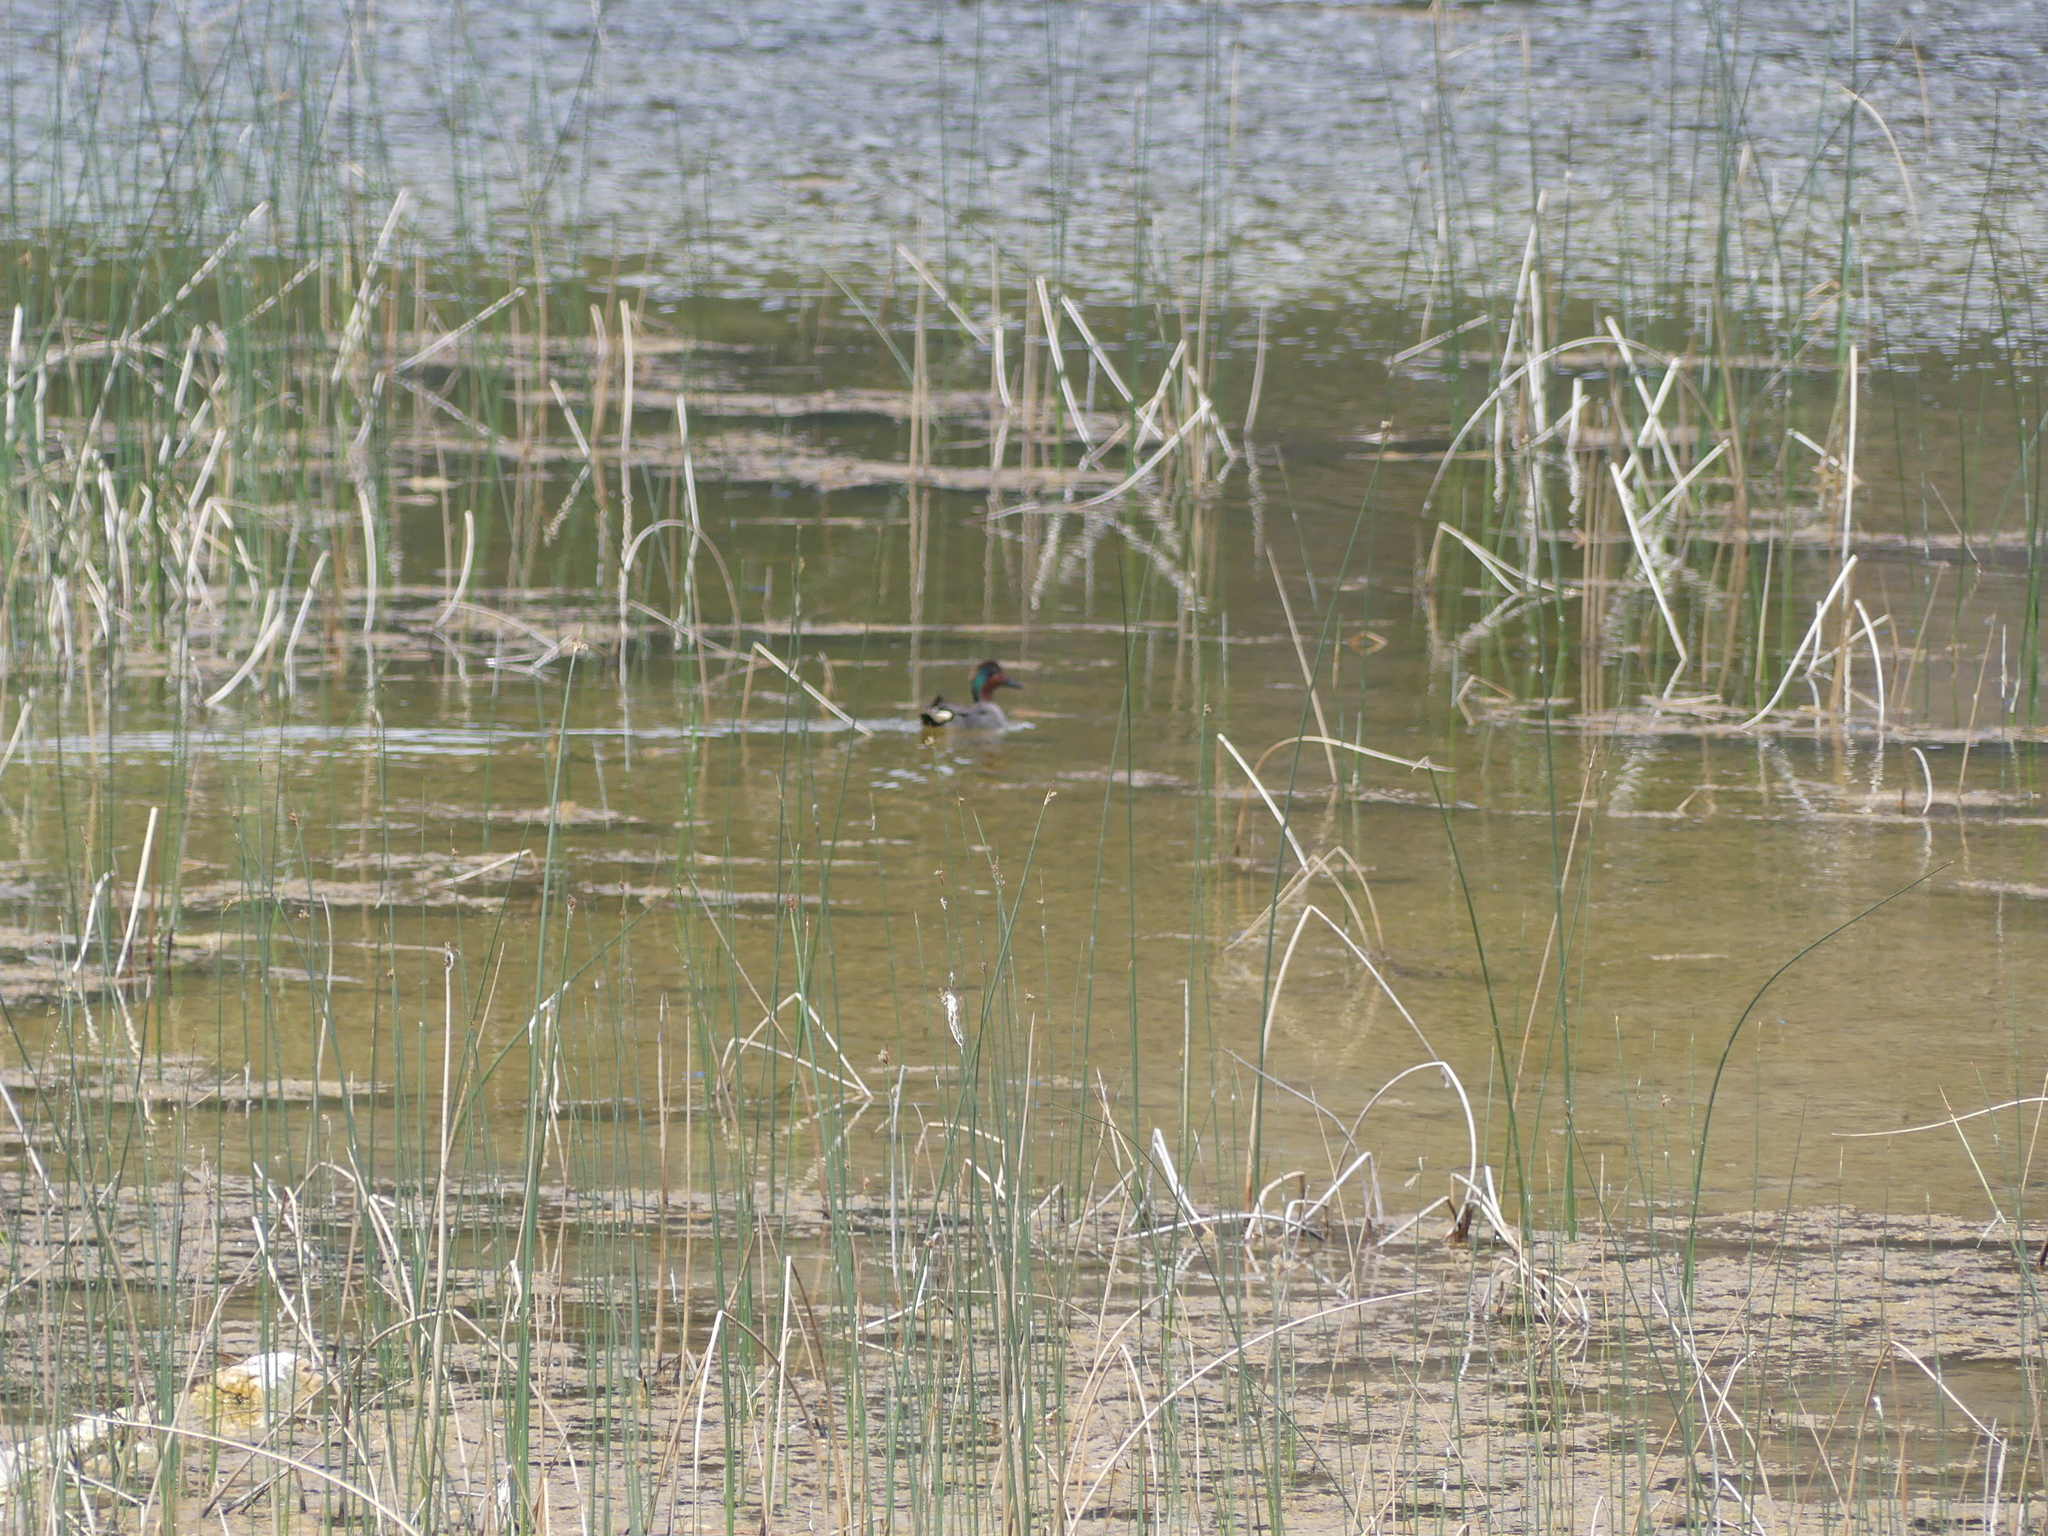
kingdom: Animalia
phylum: Chordata
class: Aves
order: Anseriformes
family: Anatidae
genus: Anas
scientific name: Anas carolinensis
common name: Green-winged teal
